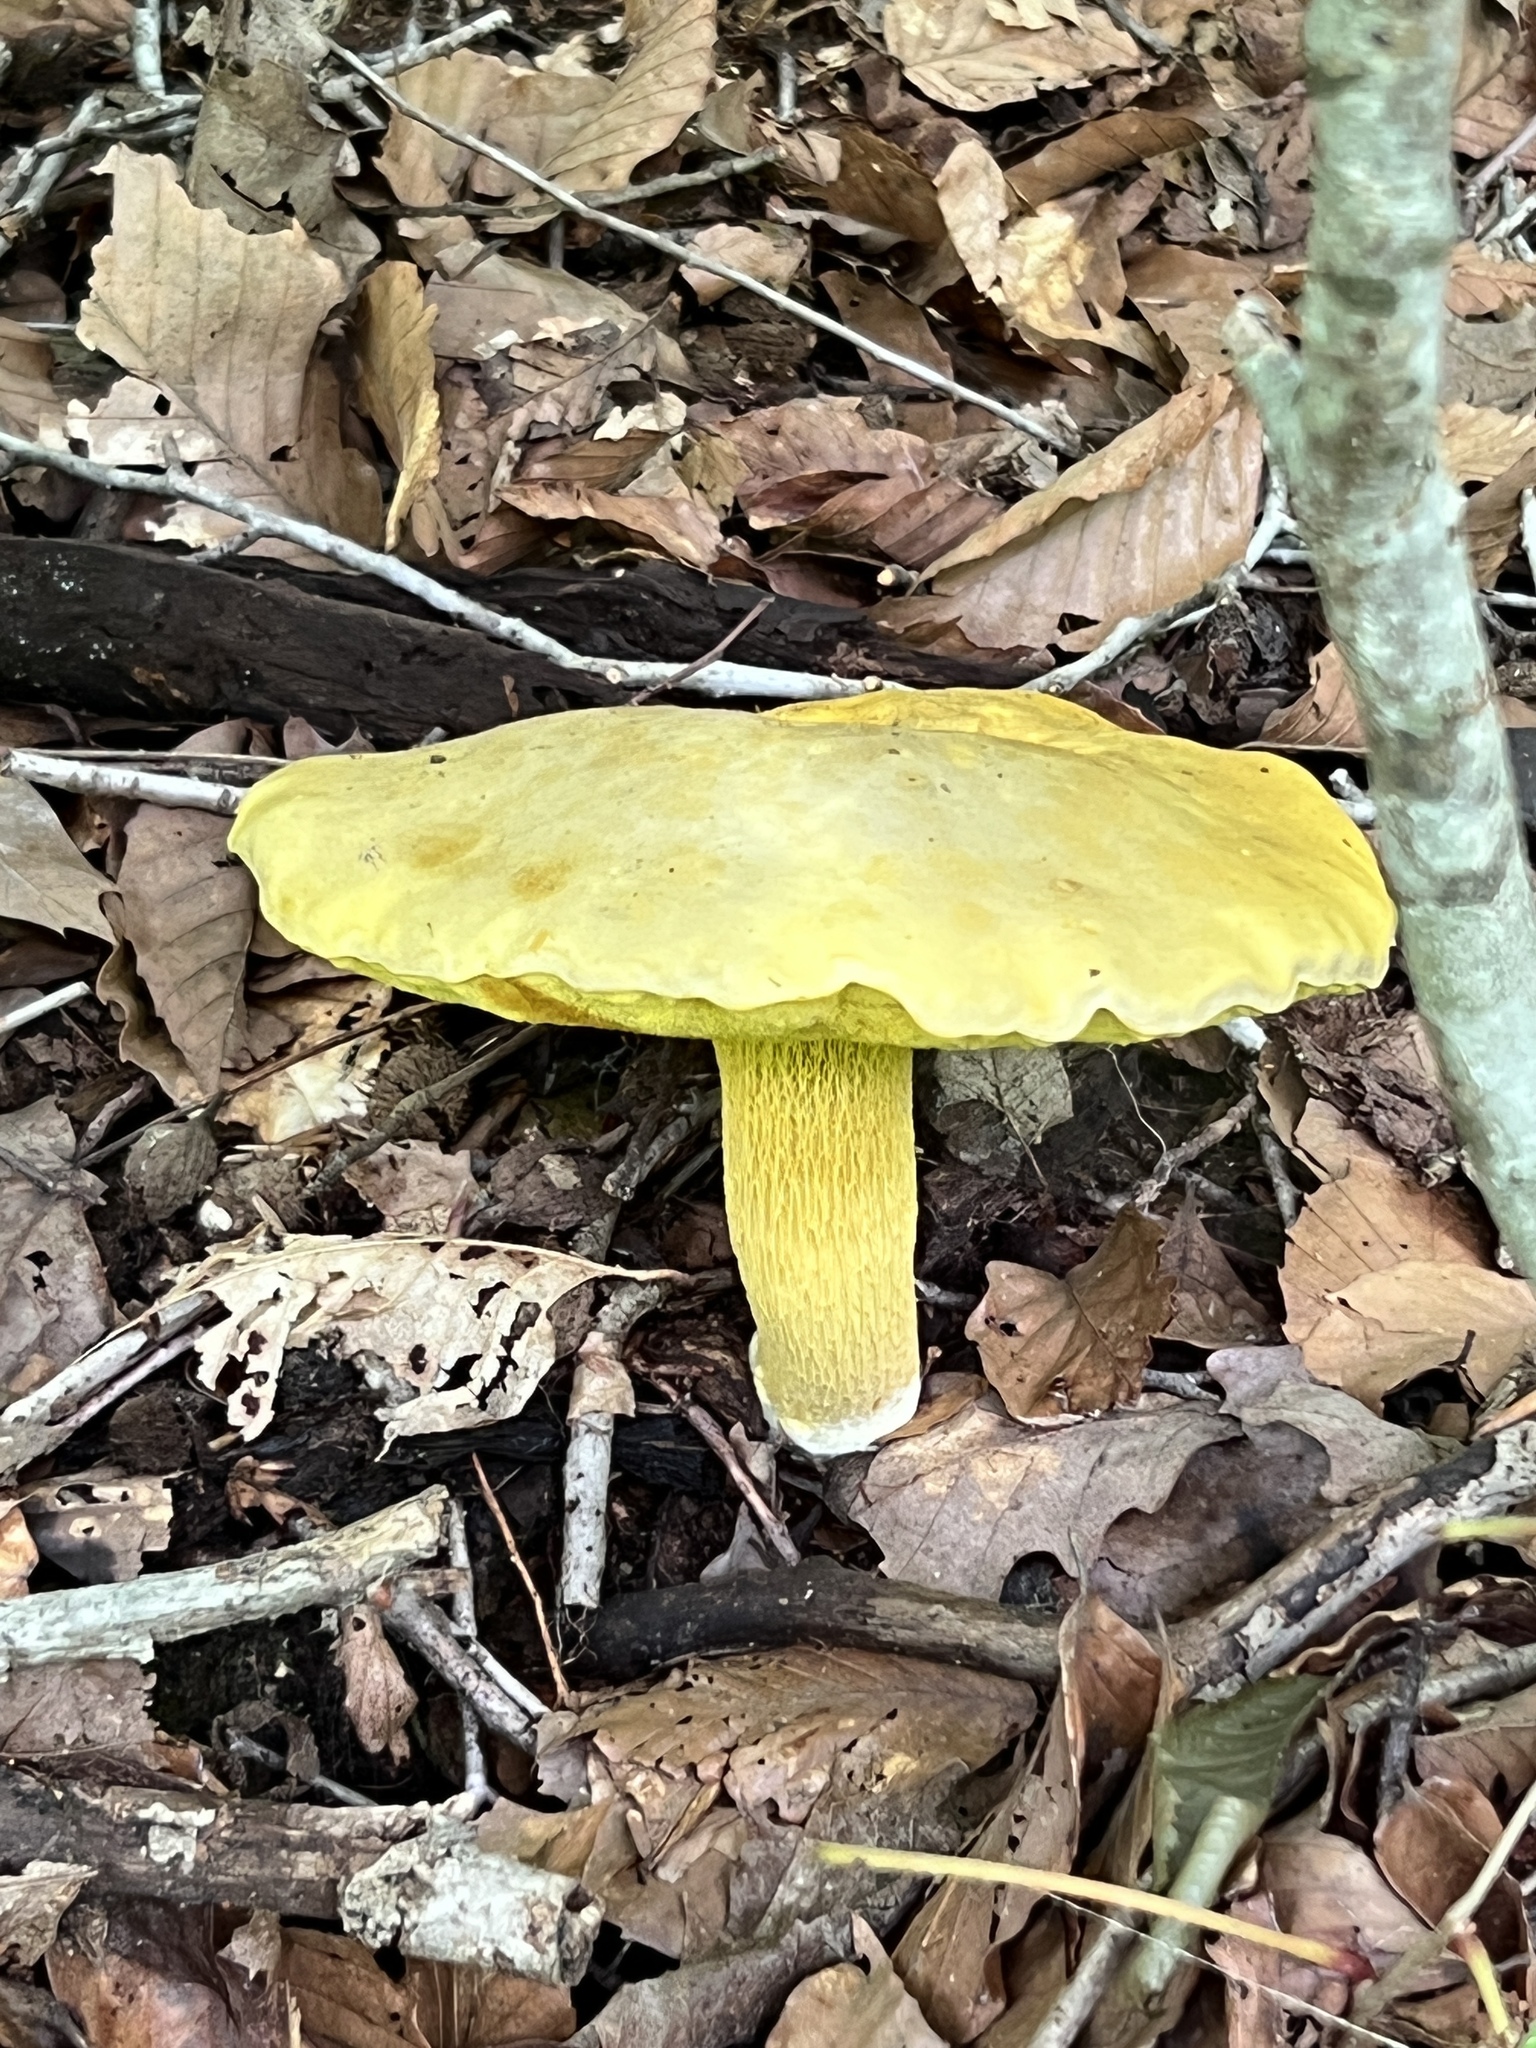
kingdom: Fungi
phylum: Basidiomycota
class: Agaricomycetes
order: Boletales
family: Boletaceae
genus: Retiboletus
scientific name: Retiboletus ornatipes
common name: Ornate-stalked bolete
